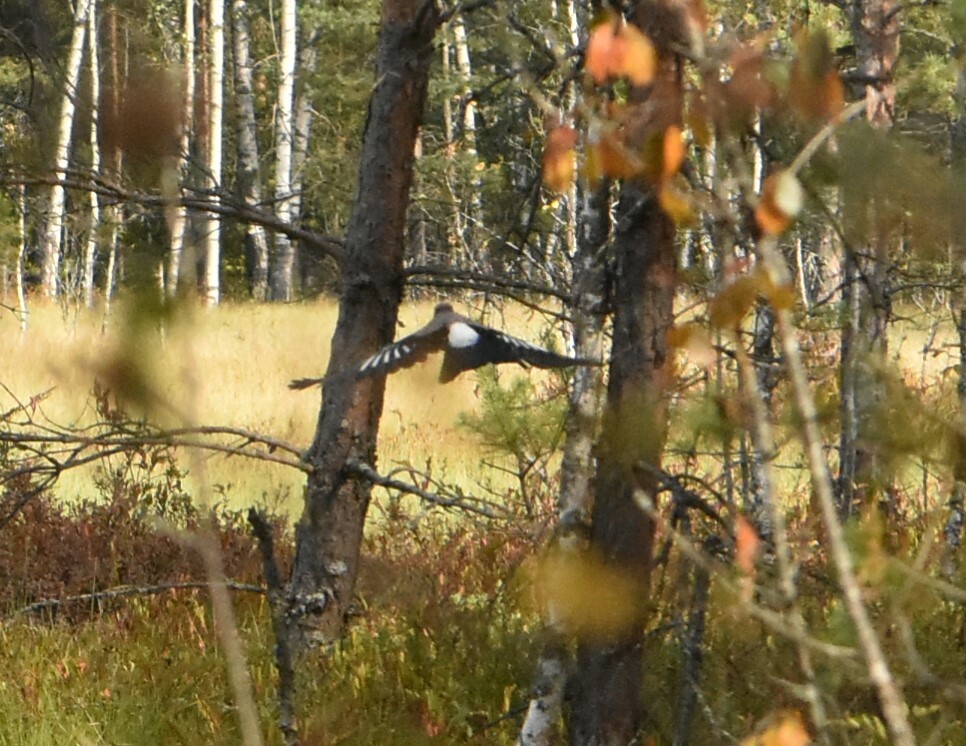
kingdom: Animalia
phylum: Chordata
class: Aves
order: Passeriformes
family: Corvidae
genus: Garrulus
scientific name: Garrulus glandarius
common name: Eurasian jay
